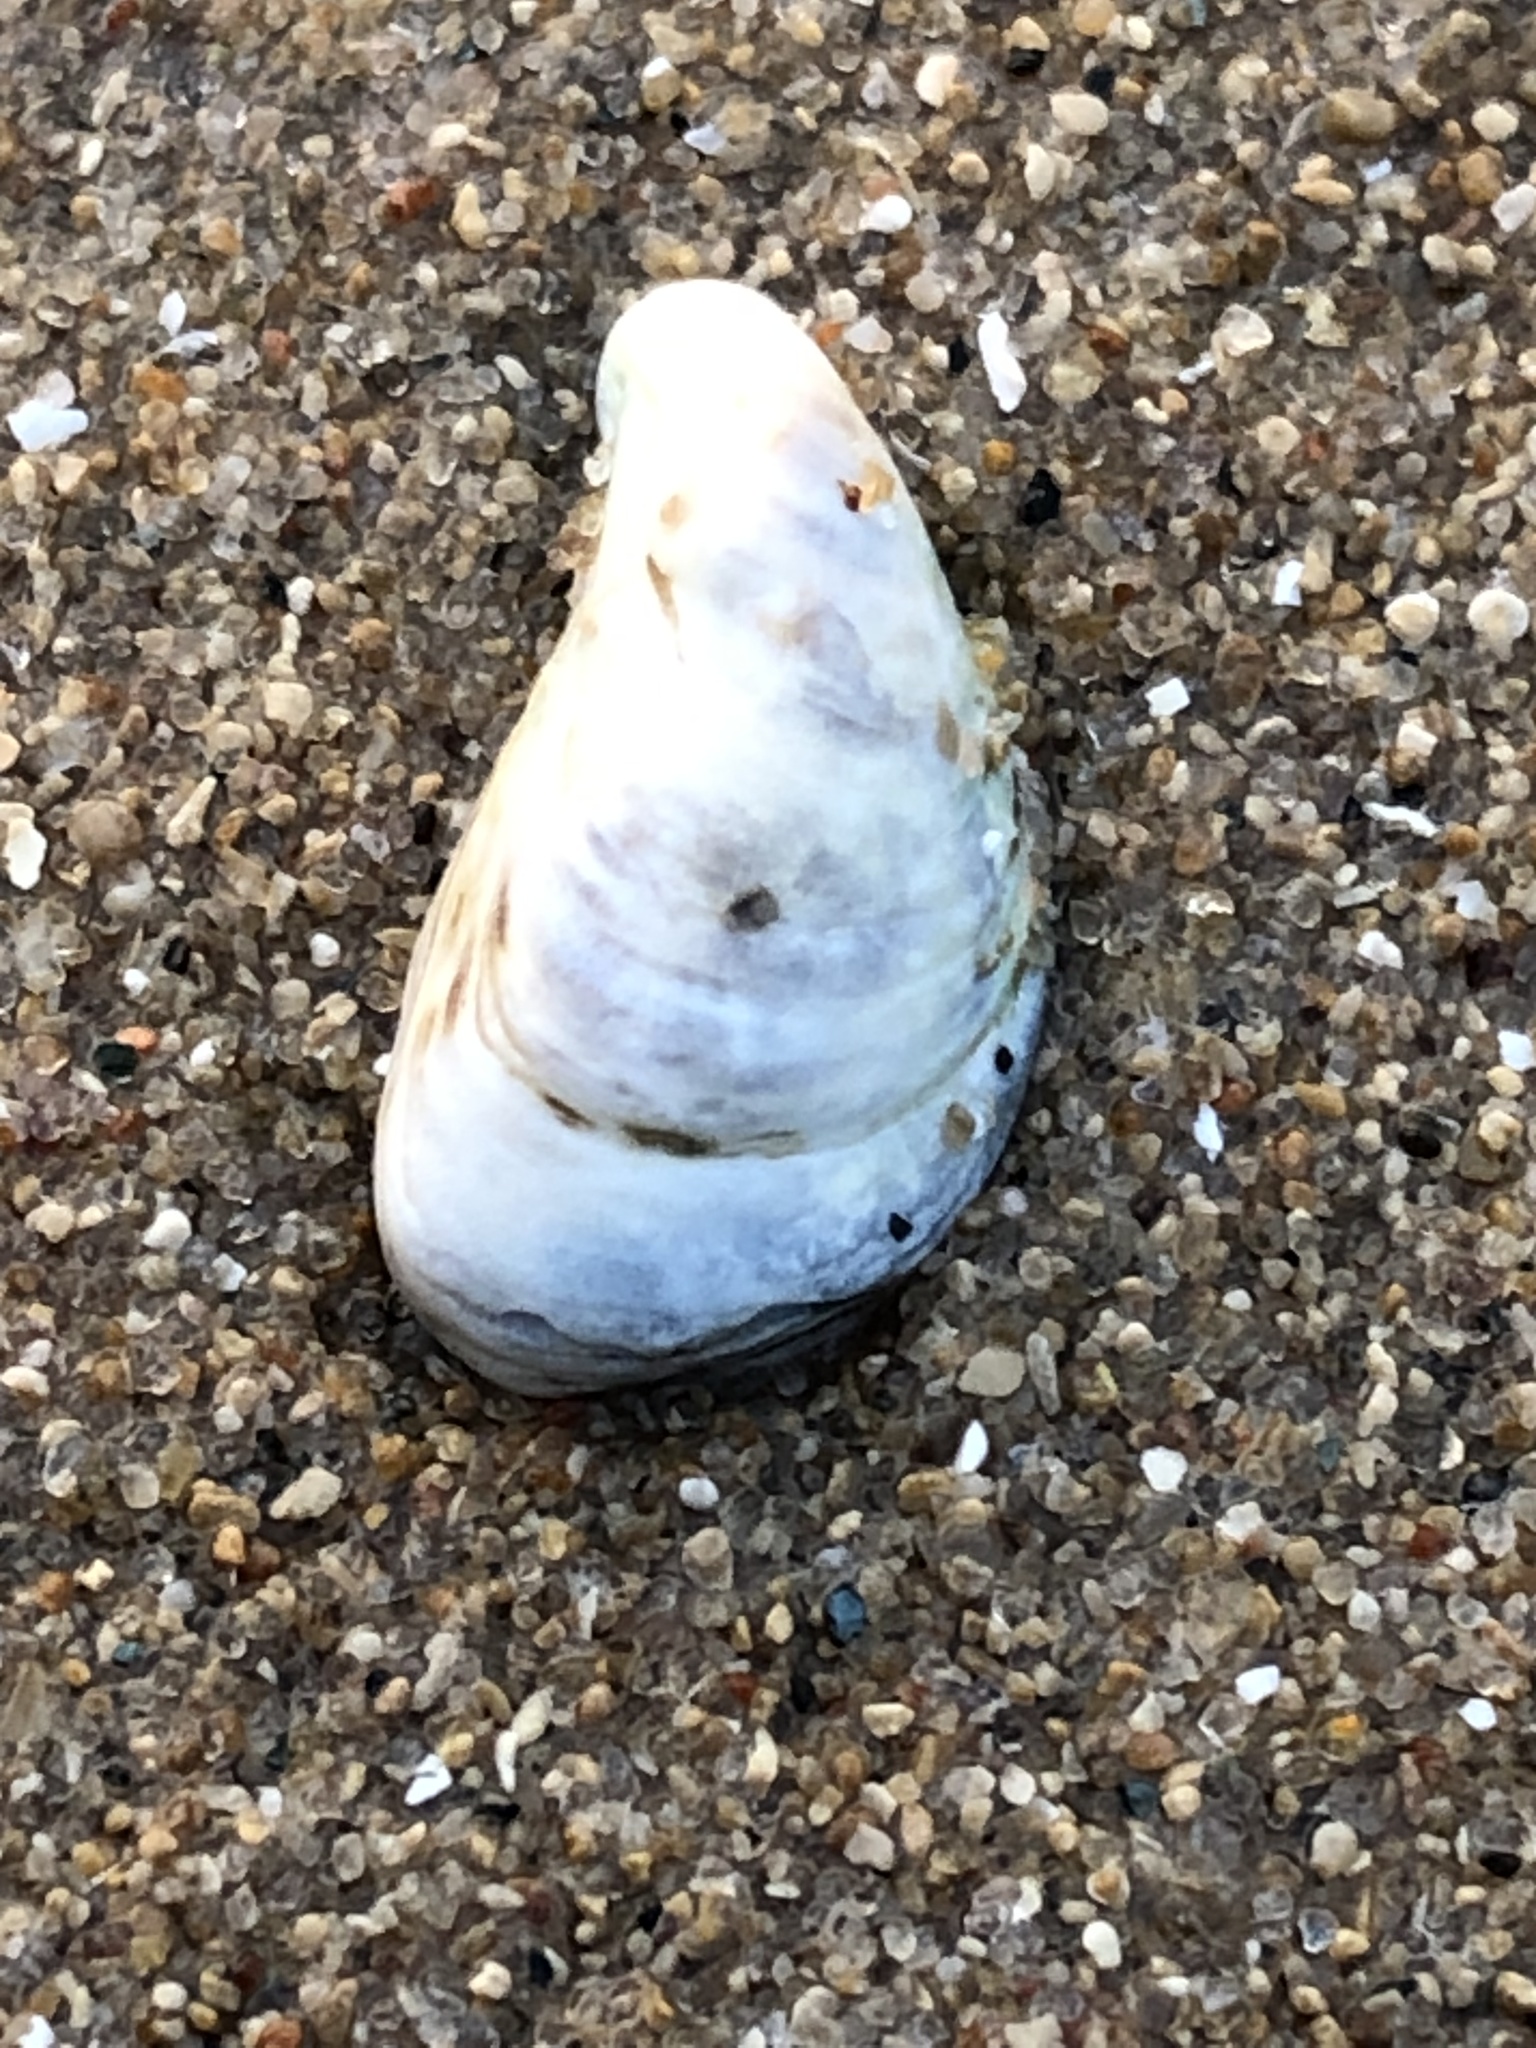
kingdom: Animalia
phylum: Mollusca
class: Bivalvia
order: Myida
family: Dreissenidae
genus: Dreissena
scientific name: Dreissena bugensis
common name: Quagga mussel
